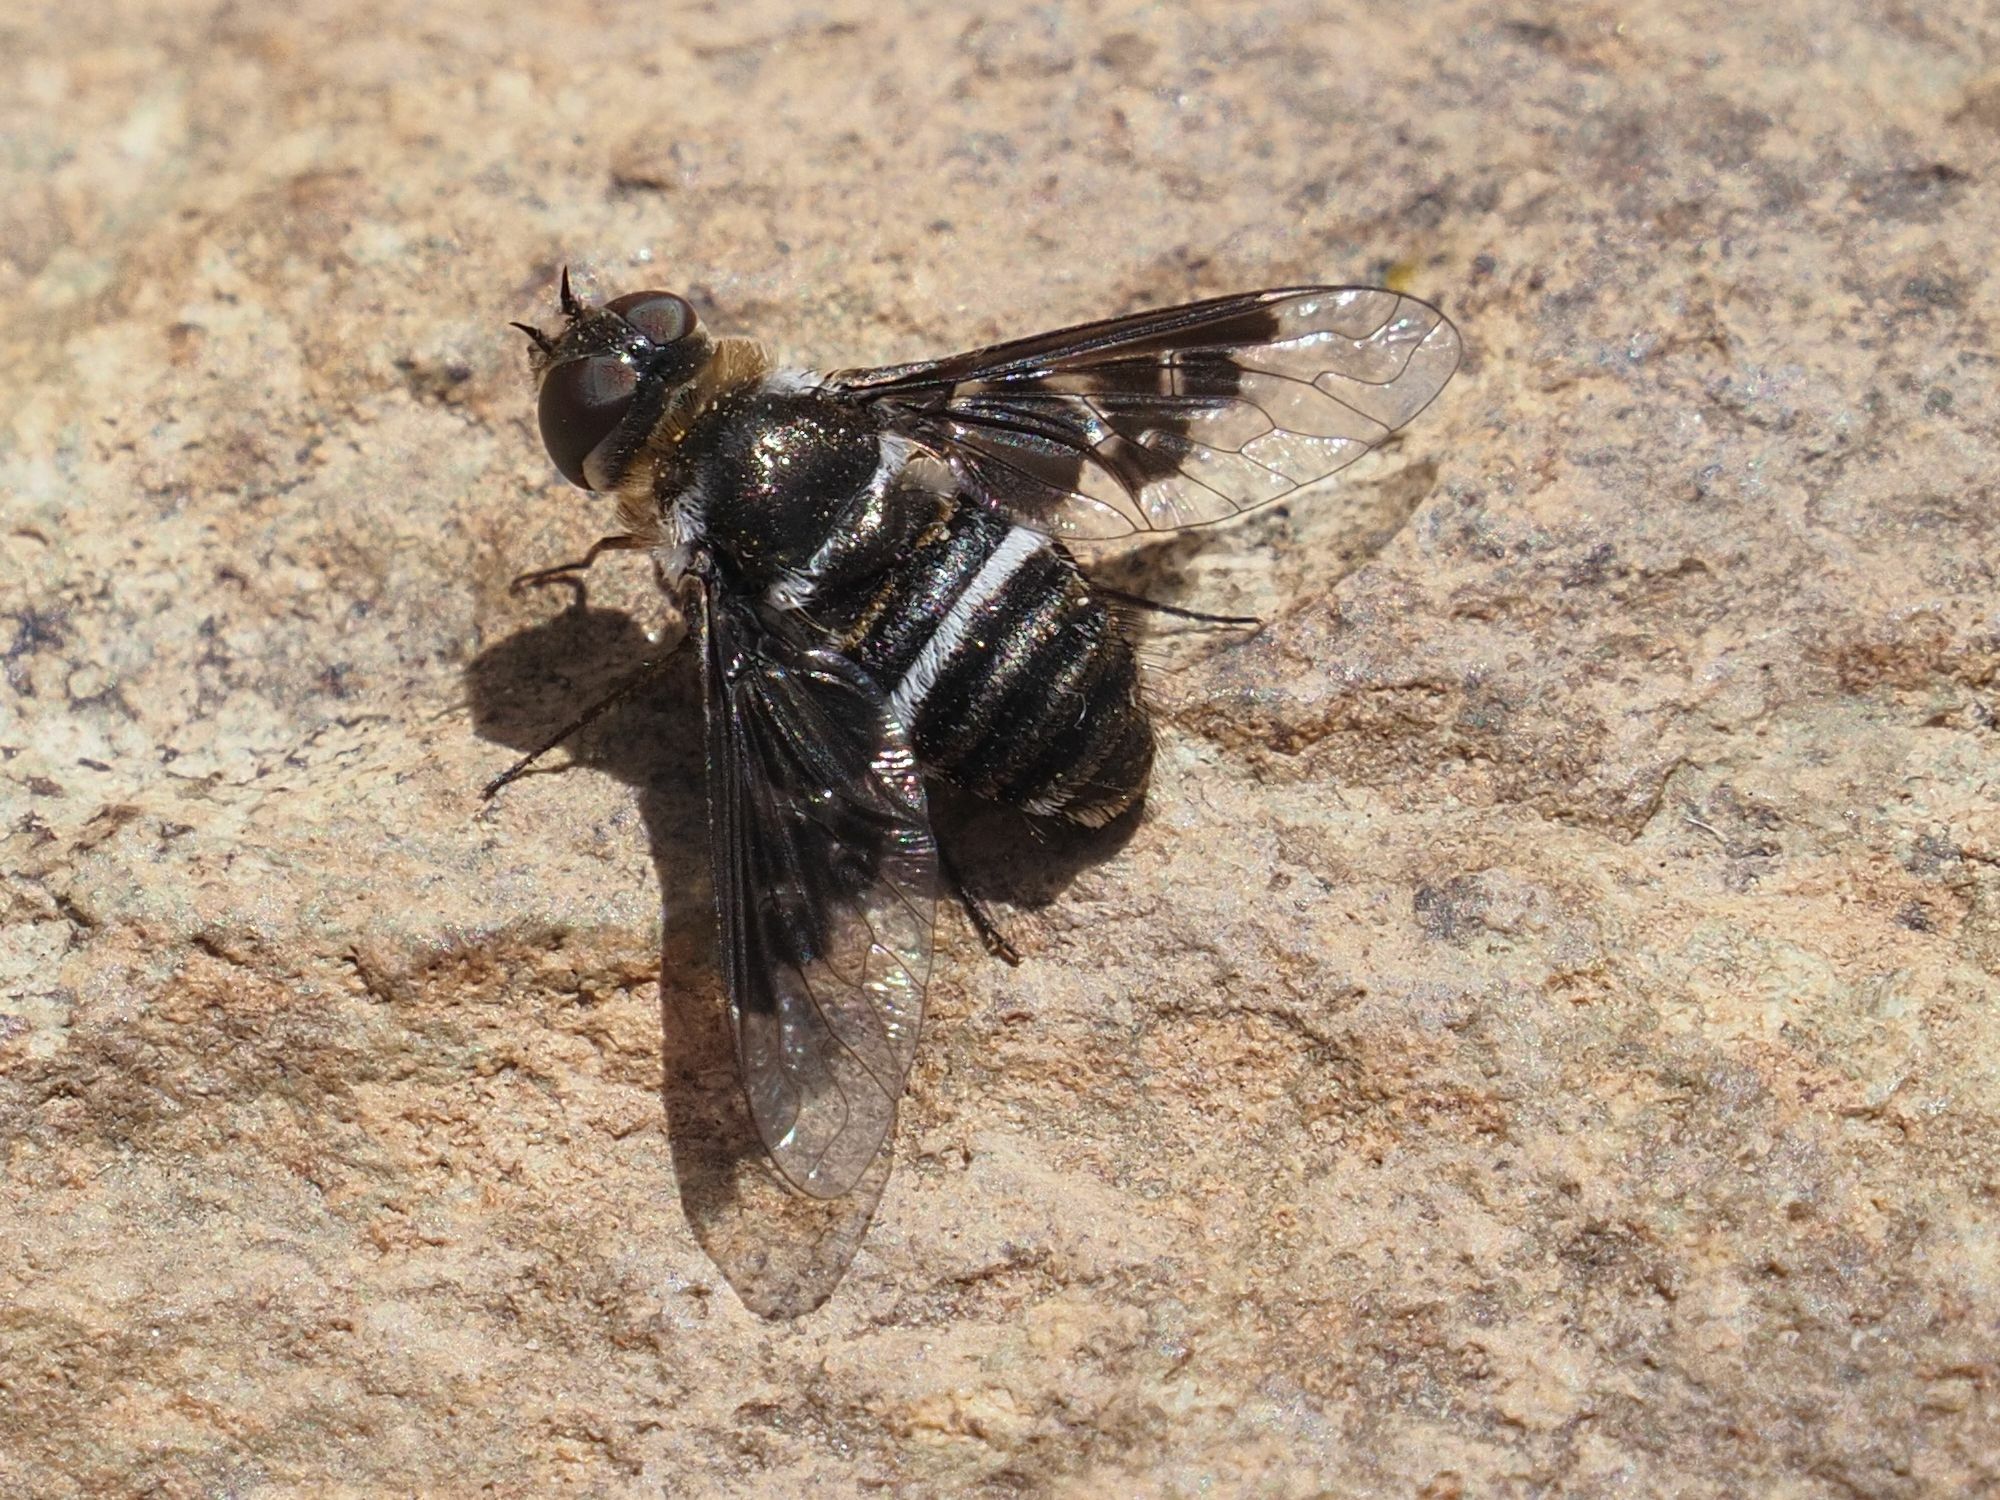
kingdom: Animalia
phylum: Arthropoda
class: Insecta
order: Diptera
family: Bombyliidae
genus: Thyridanthrax
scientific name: Thyridanthrax indigenus
